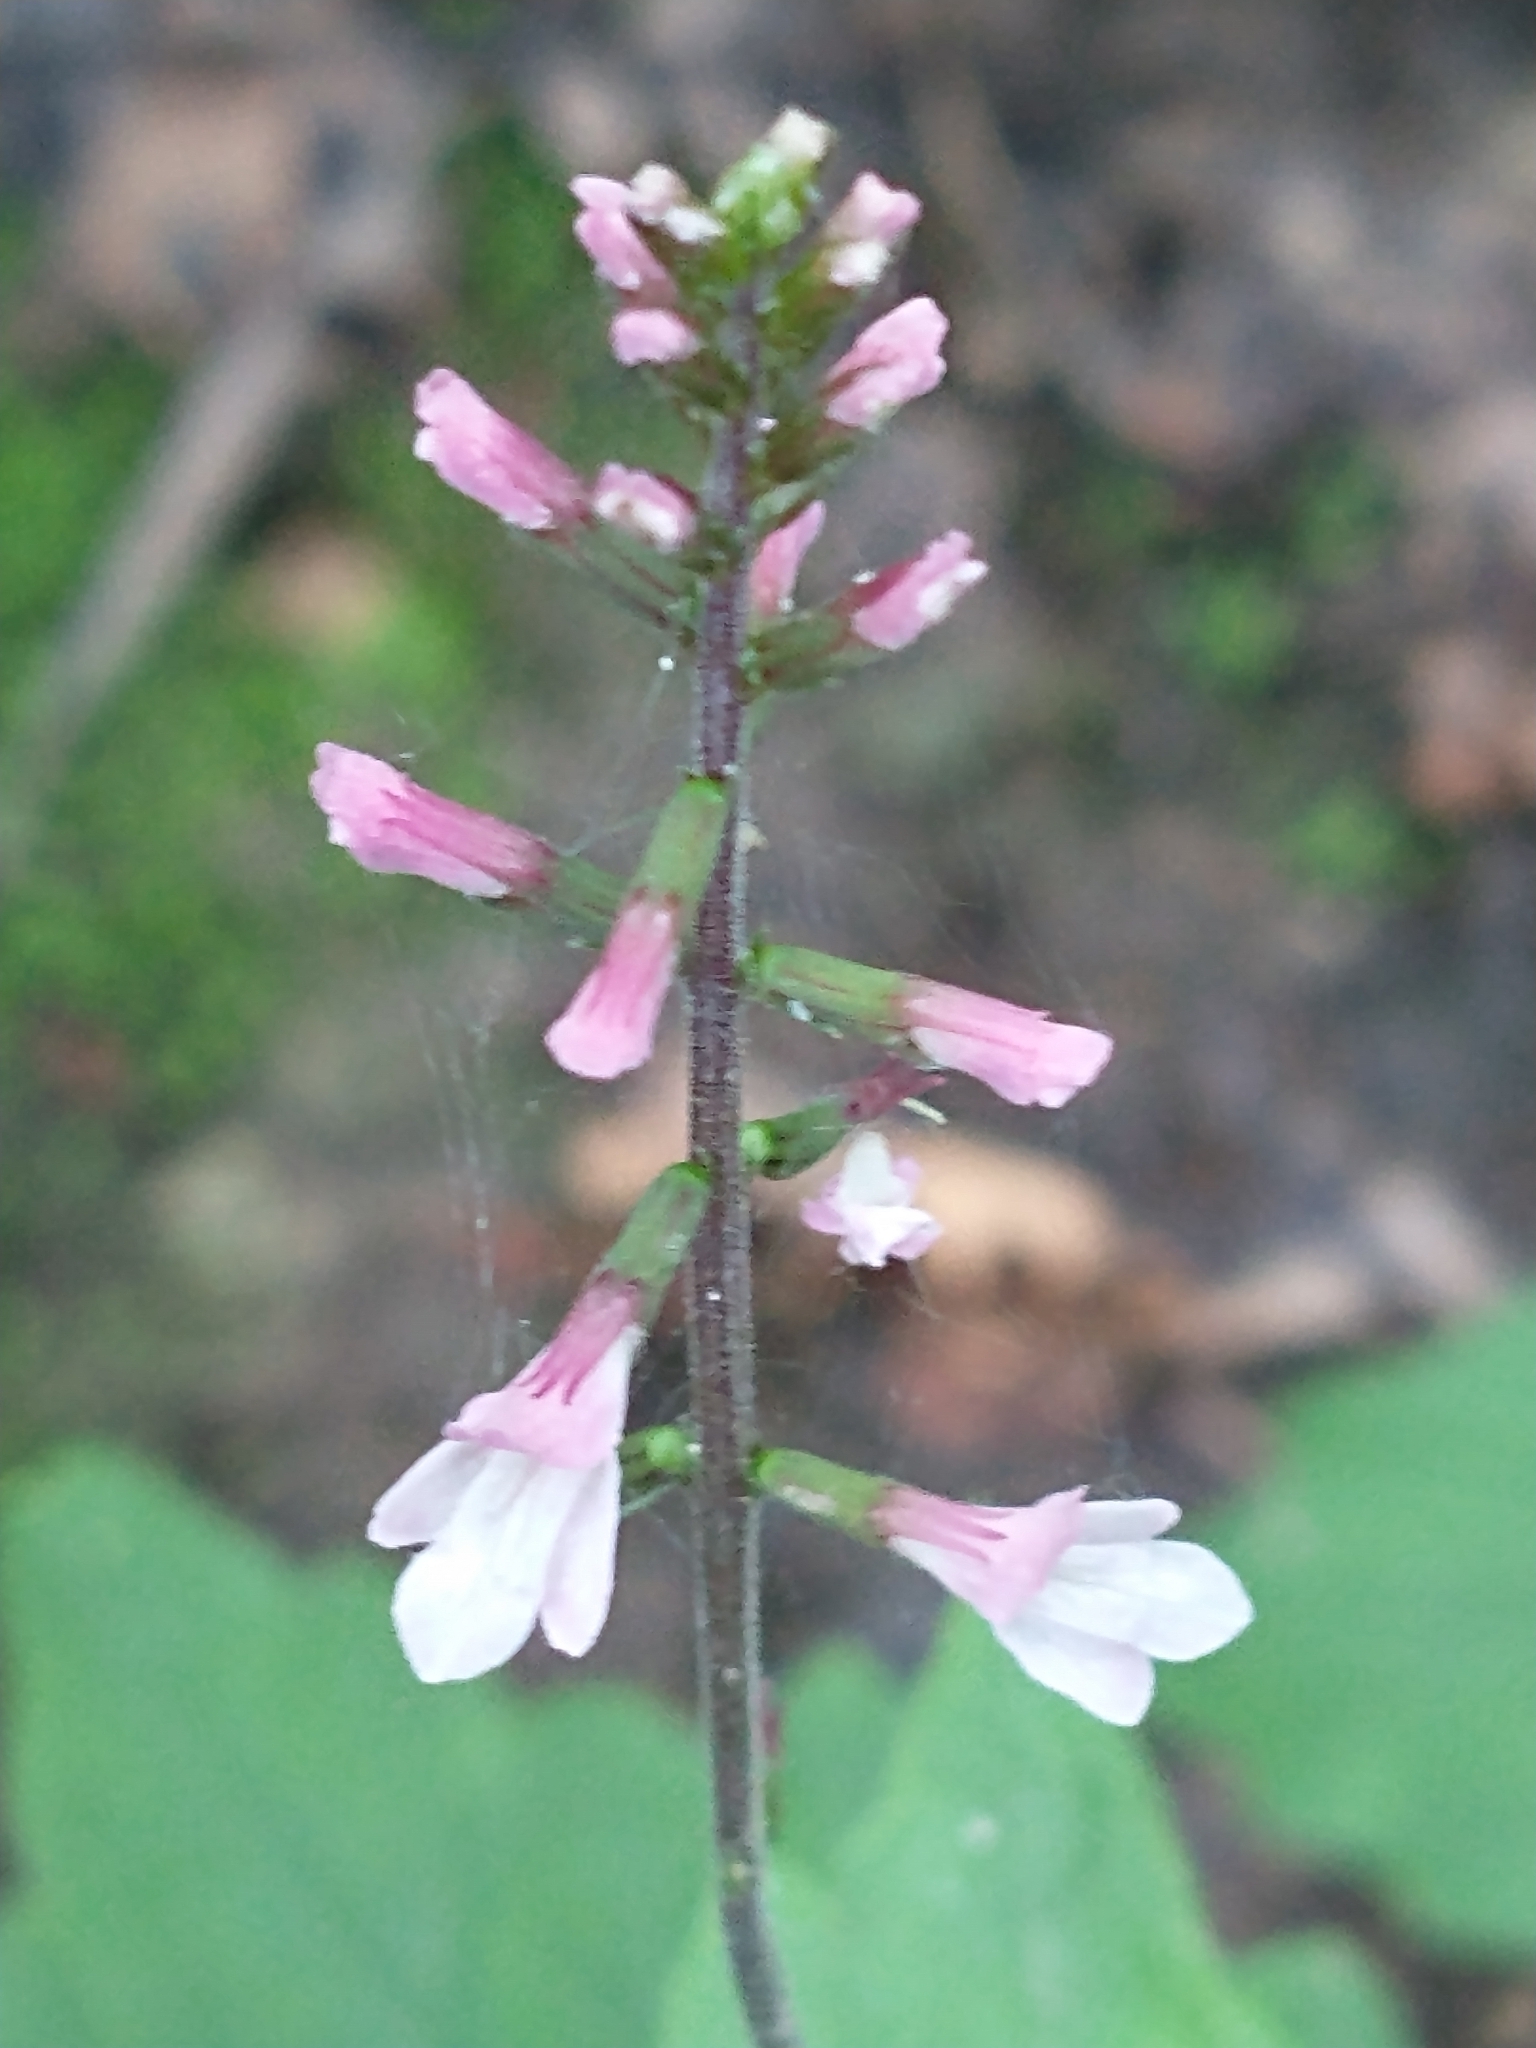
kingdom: Plantae
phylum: Tracheophyta
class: Magnoliopsida
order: Lamiales
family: Phrymaceae
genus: Phryma
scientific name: Phryma leptostachya
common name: American lopseed
